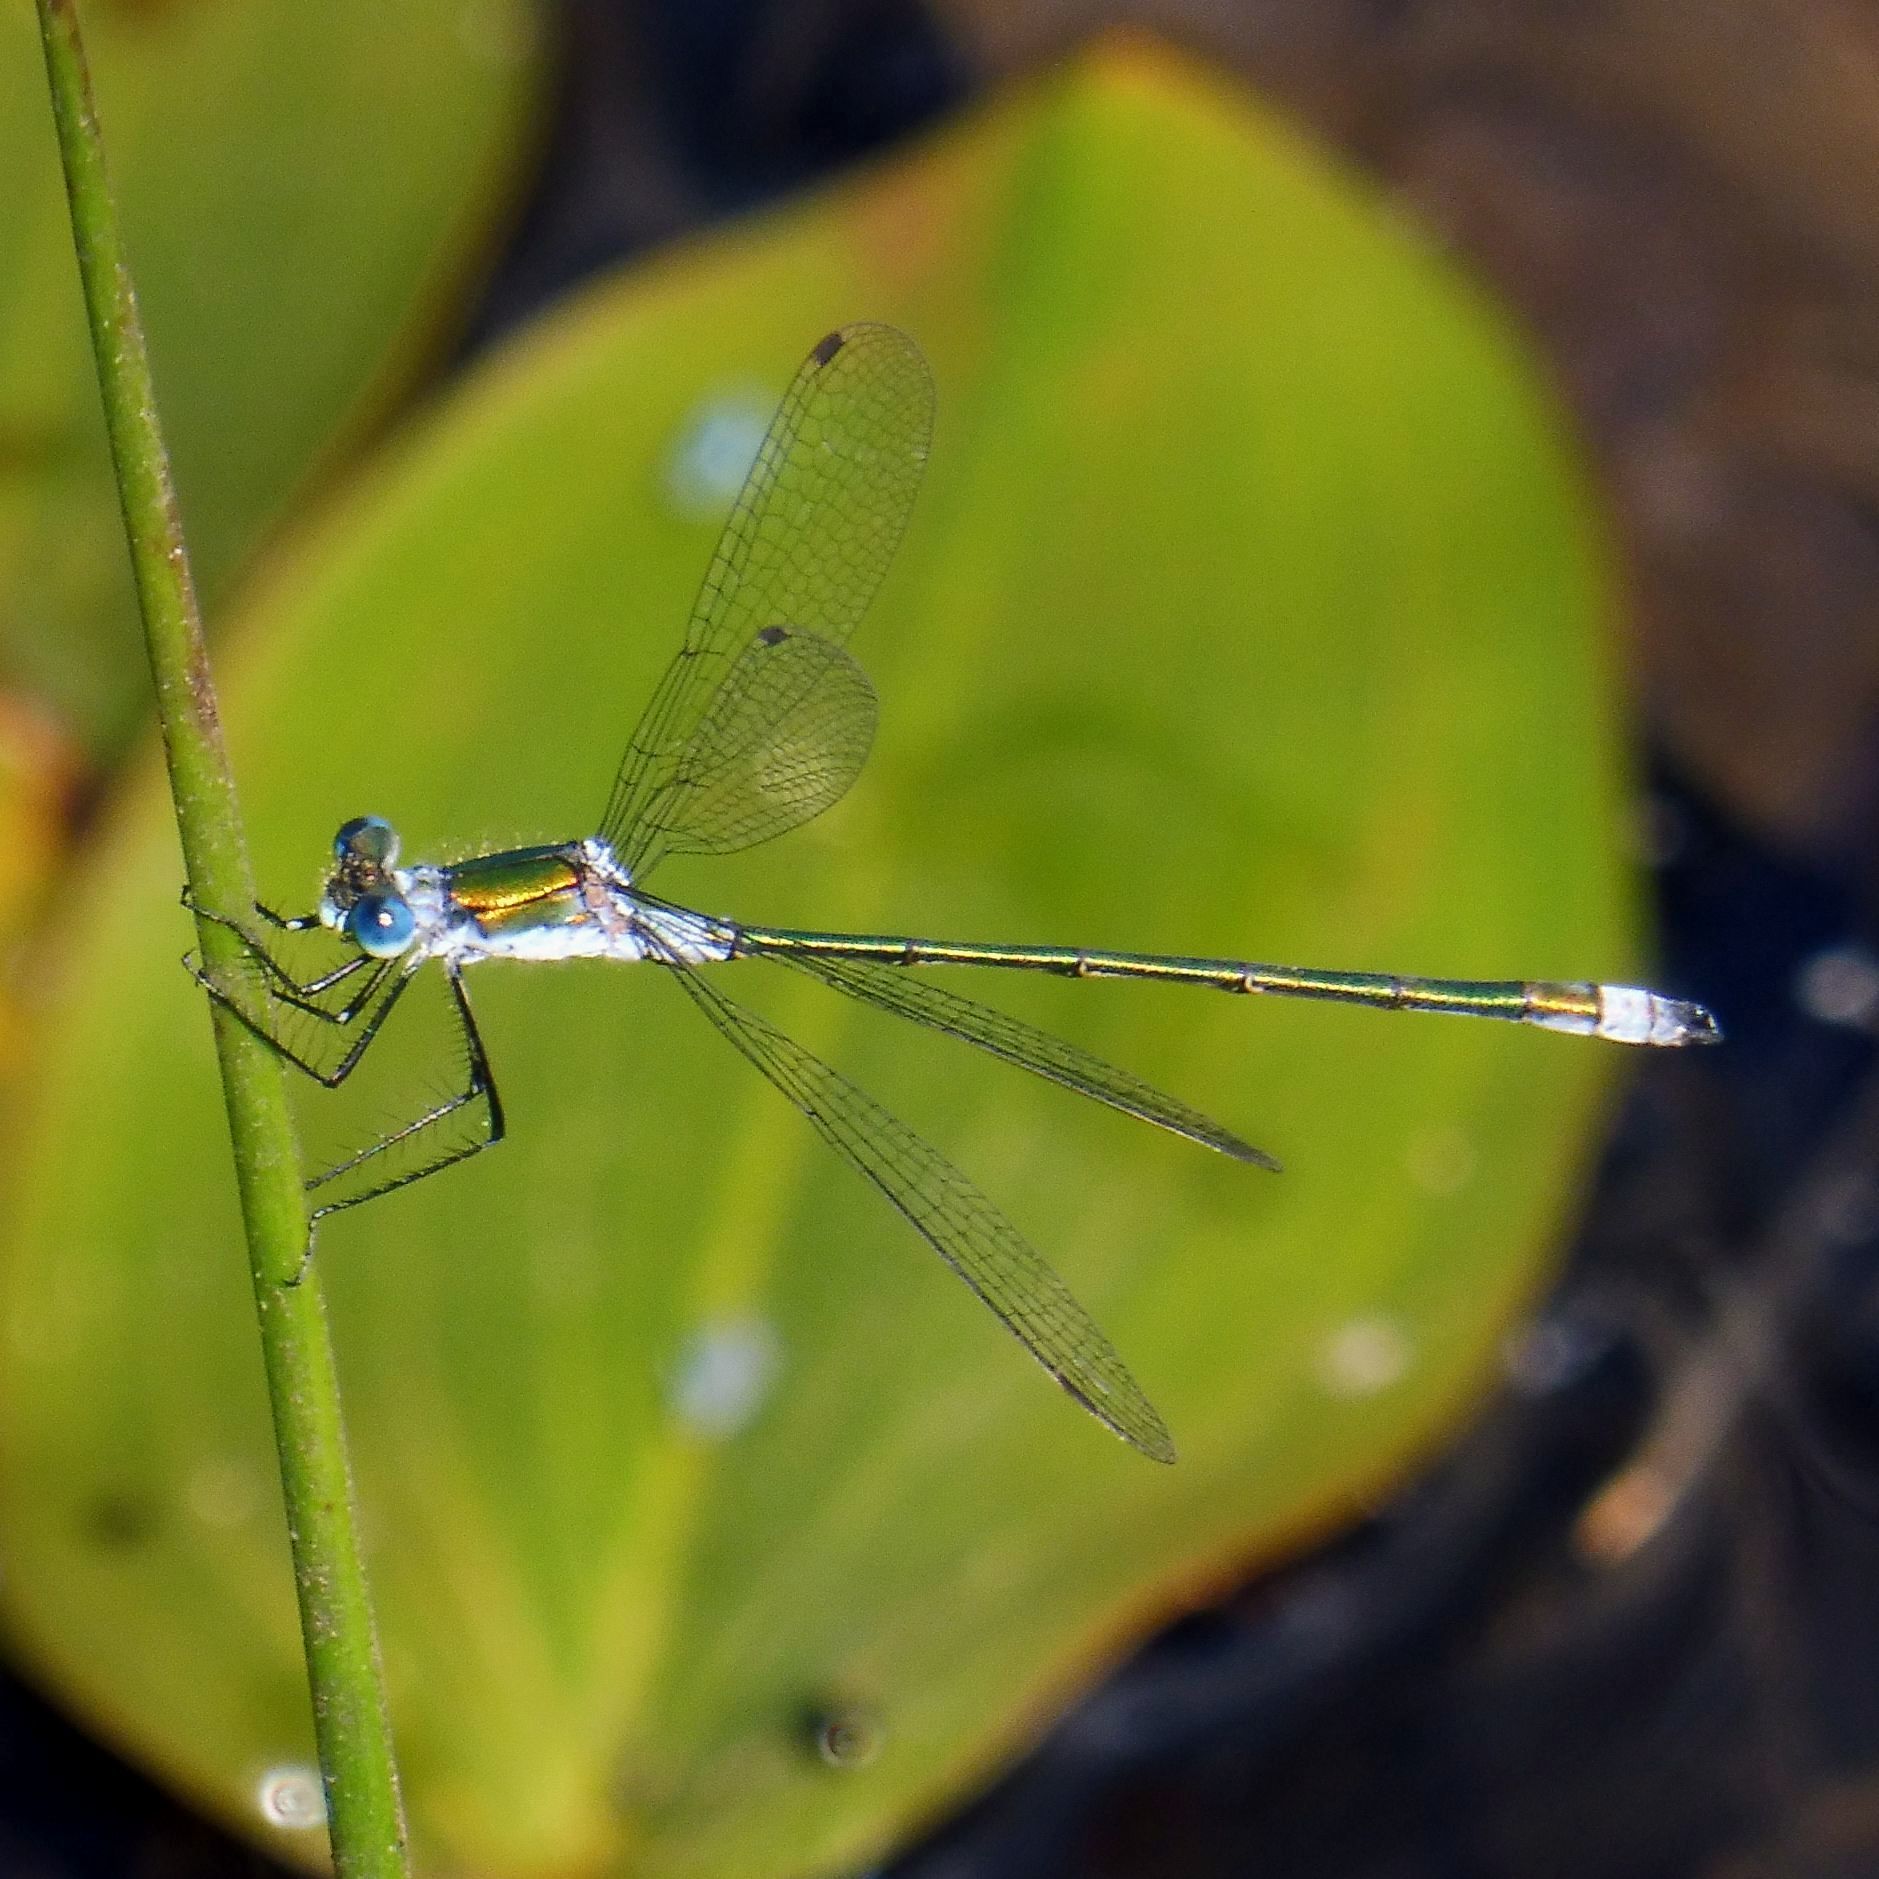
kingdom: Animalia
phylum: Arthropoda
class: Insecta
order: Odonata
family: Lestidae
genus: Lestes
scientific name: Lestes sponsa
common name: Common spreadwing
